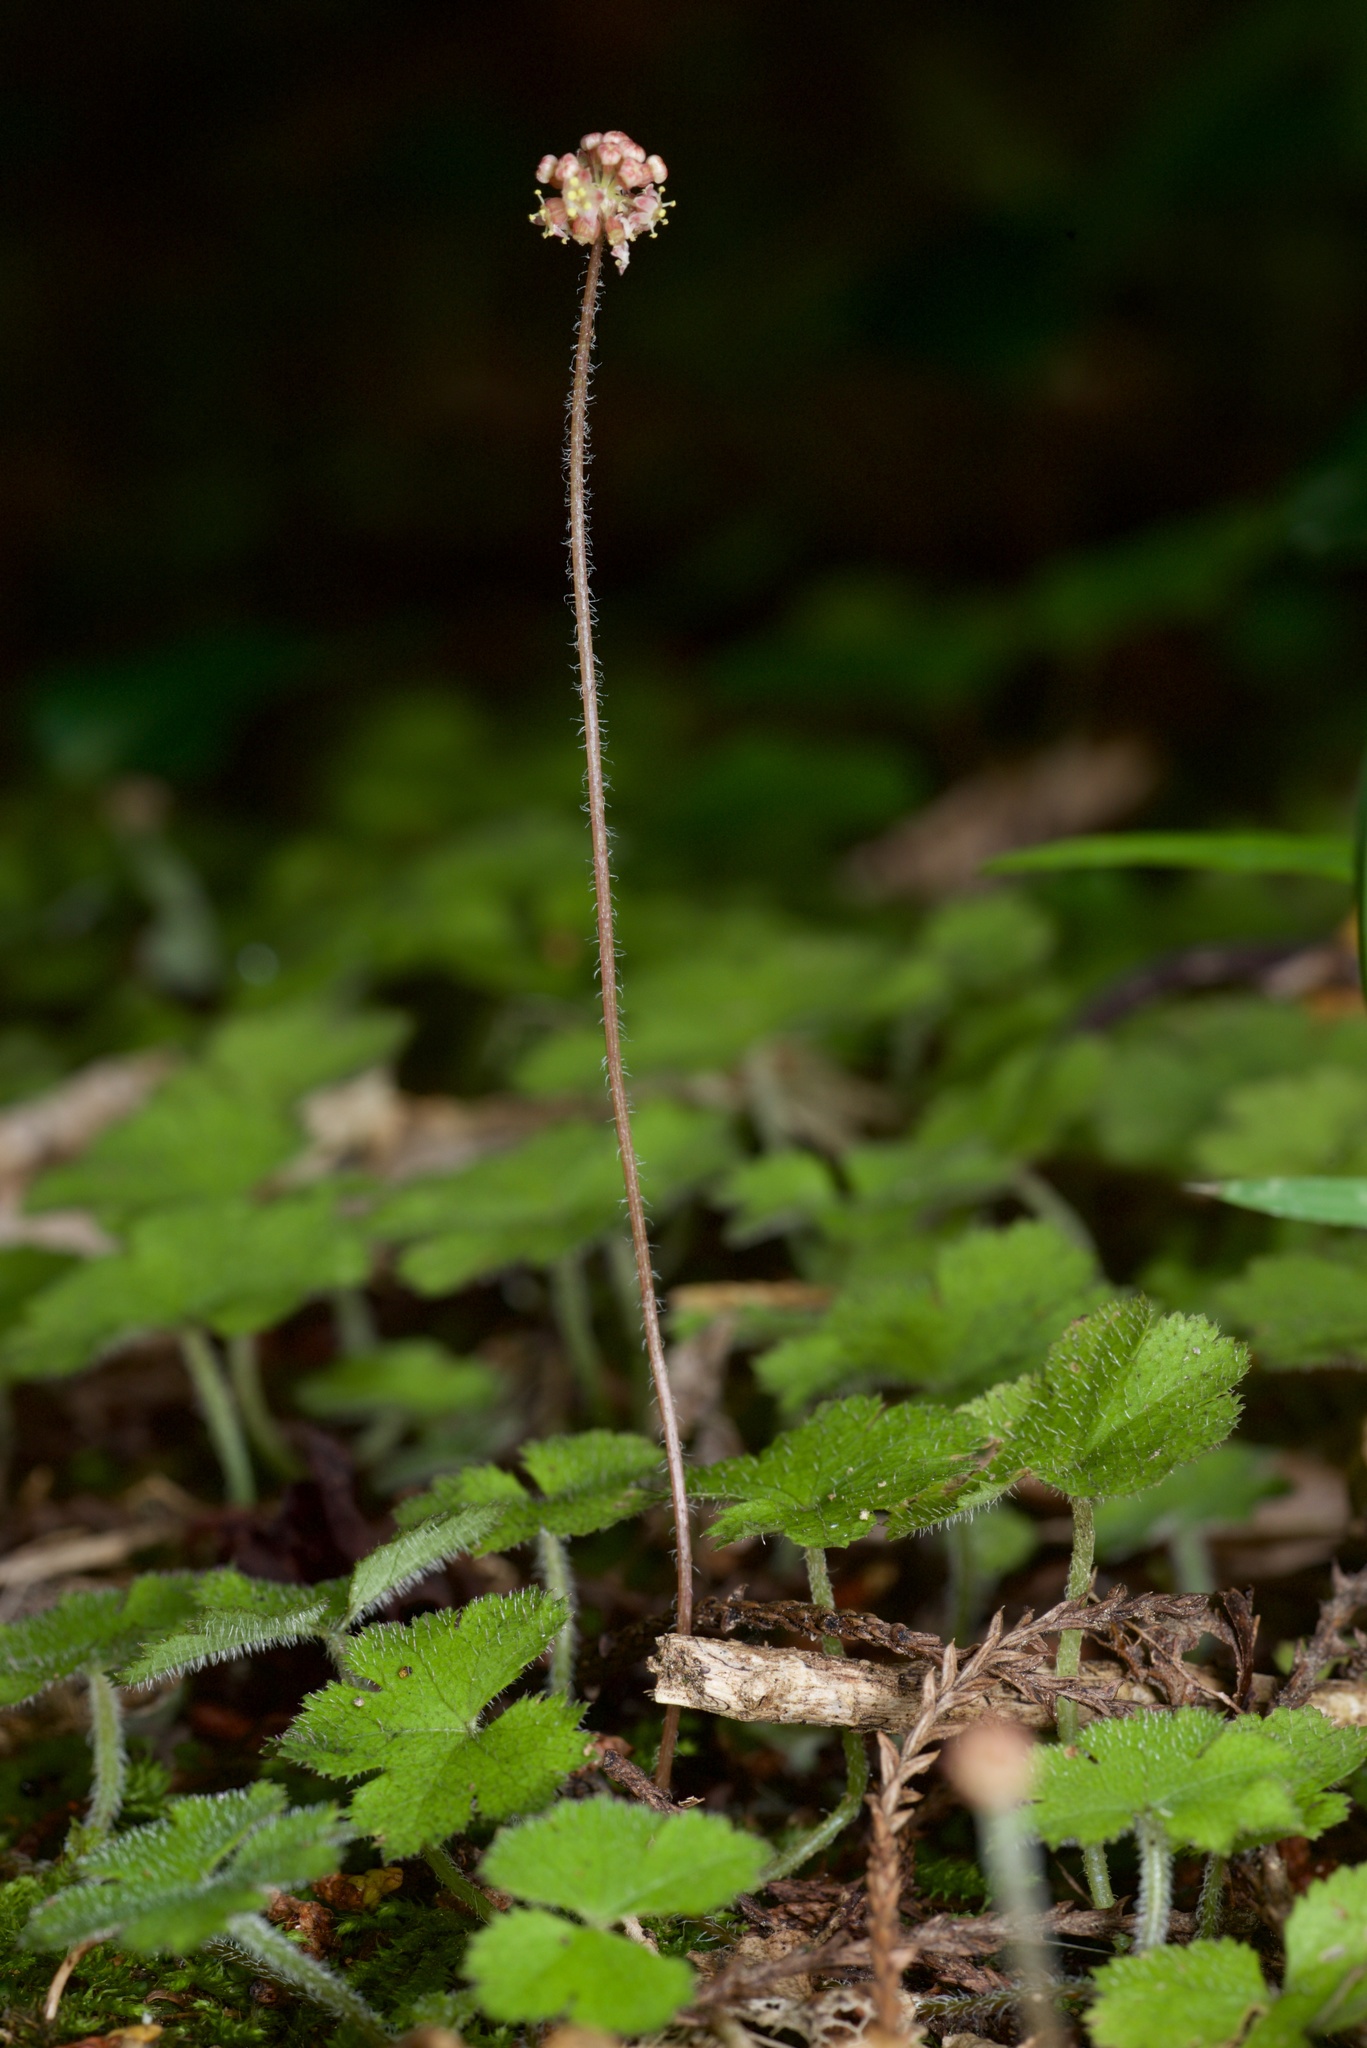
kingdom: Plantae
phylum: Tracheophyta
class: Magnoliopsida
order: Apiales
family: Araliaceae
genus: Hydrocotyle
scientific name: Hydrocotyle elongata
